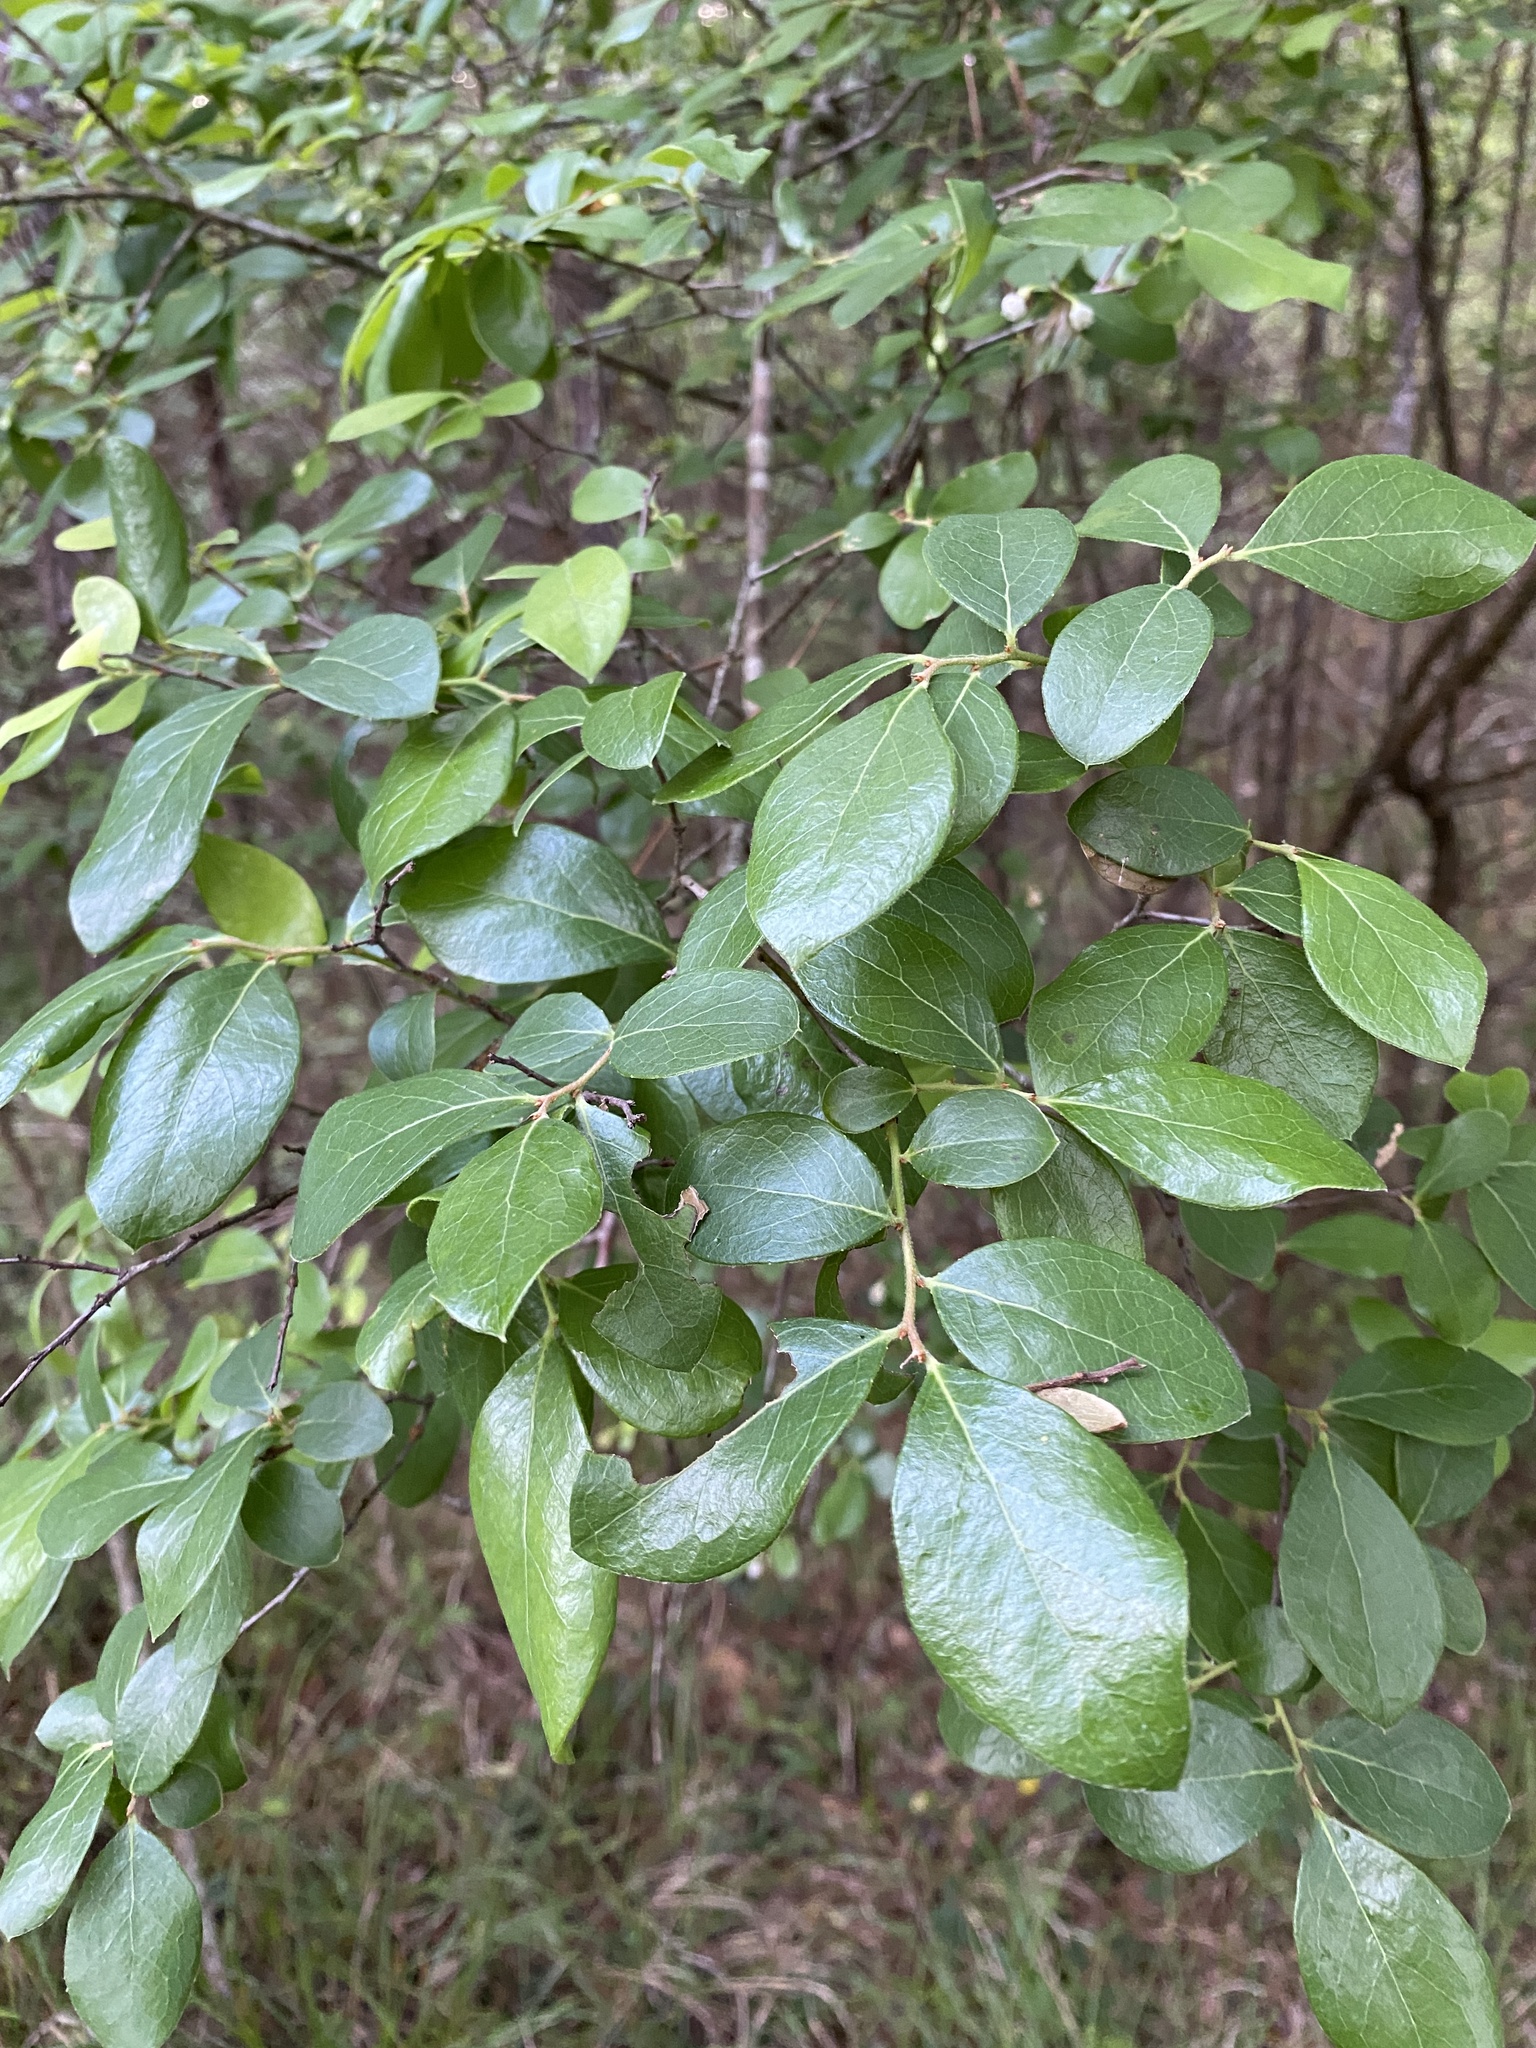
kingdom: Plantae
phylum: Tracheophyta
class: Magnoliopsida
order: Ericales
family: Ericaceae
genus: Vaccinium
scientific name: Vaccinium arboreum
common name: Farkleberry
